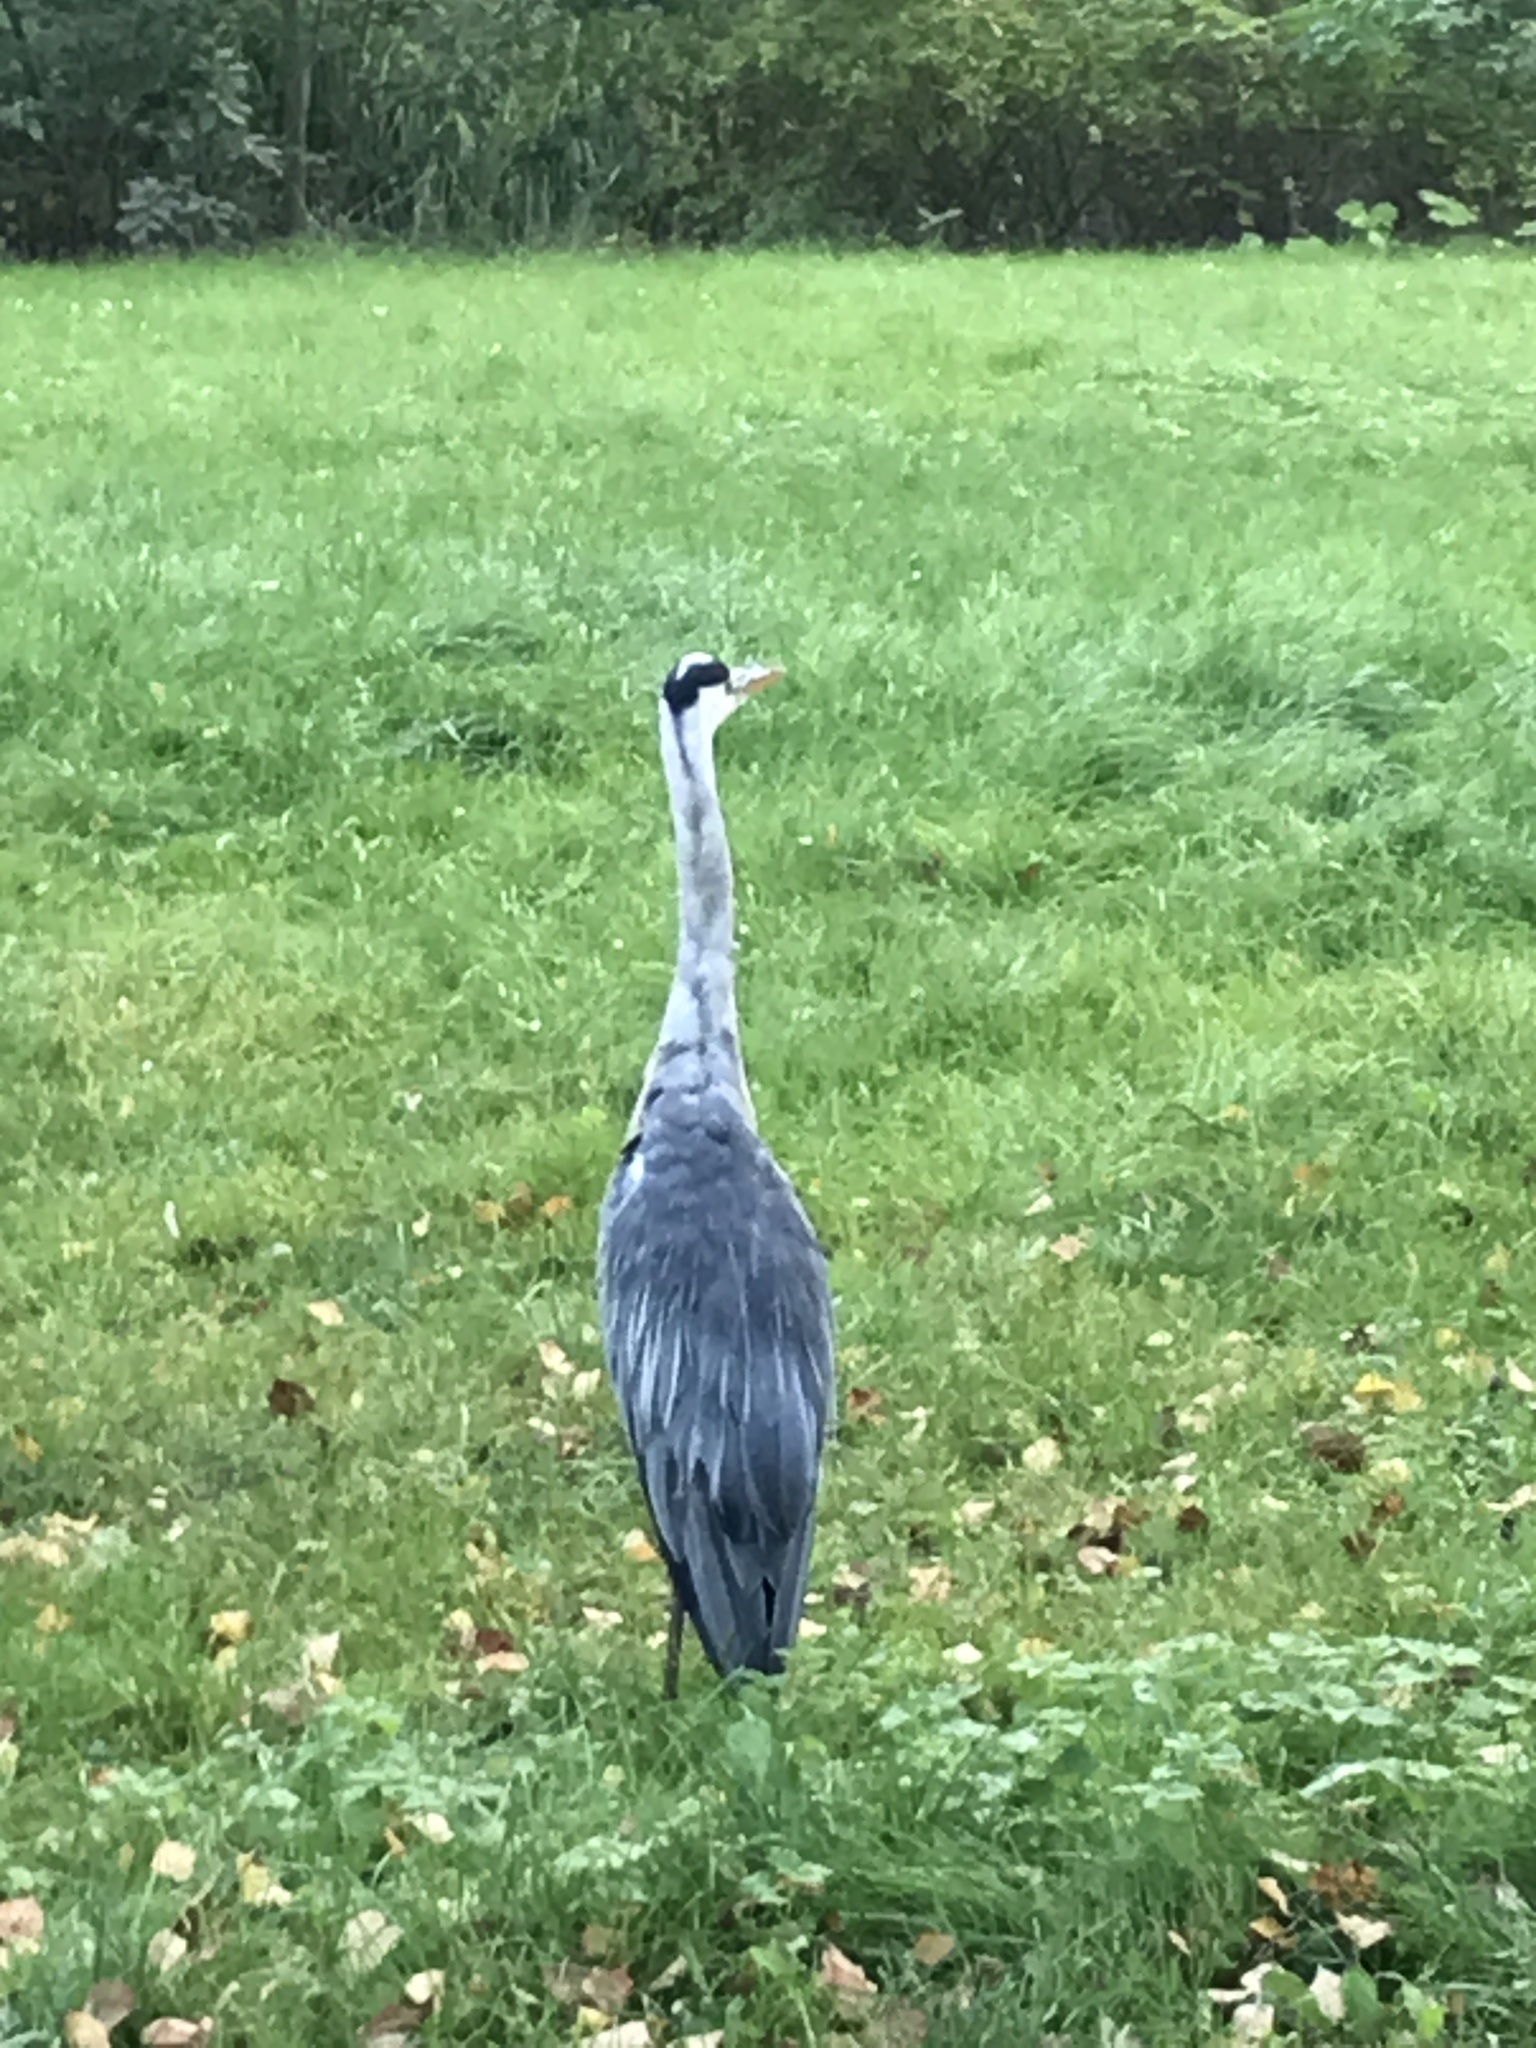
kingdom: Animalia
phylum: Chordata
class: Aves
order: Pelecaniformes
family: Ardeidae
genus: Ardea
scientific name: Ardea cinerea
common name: Grey heron
